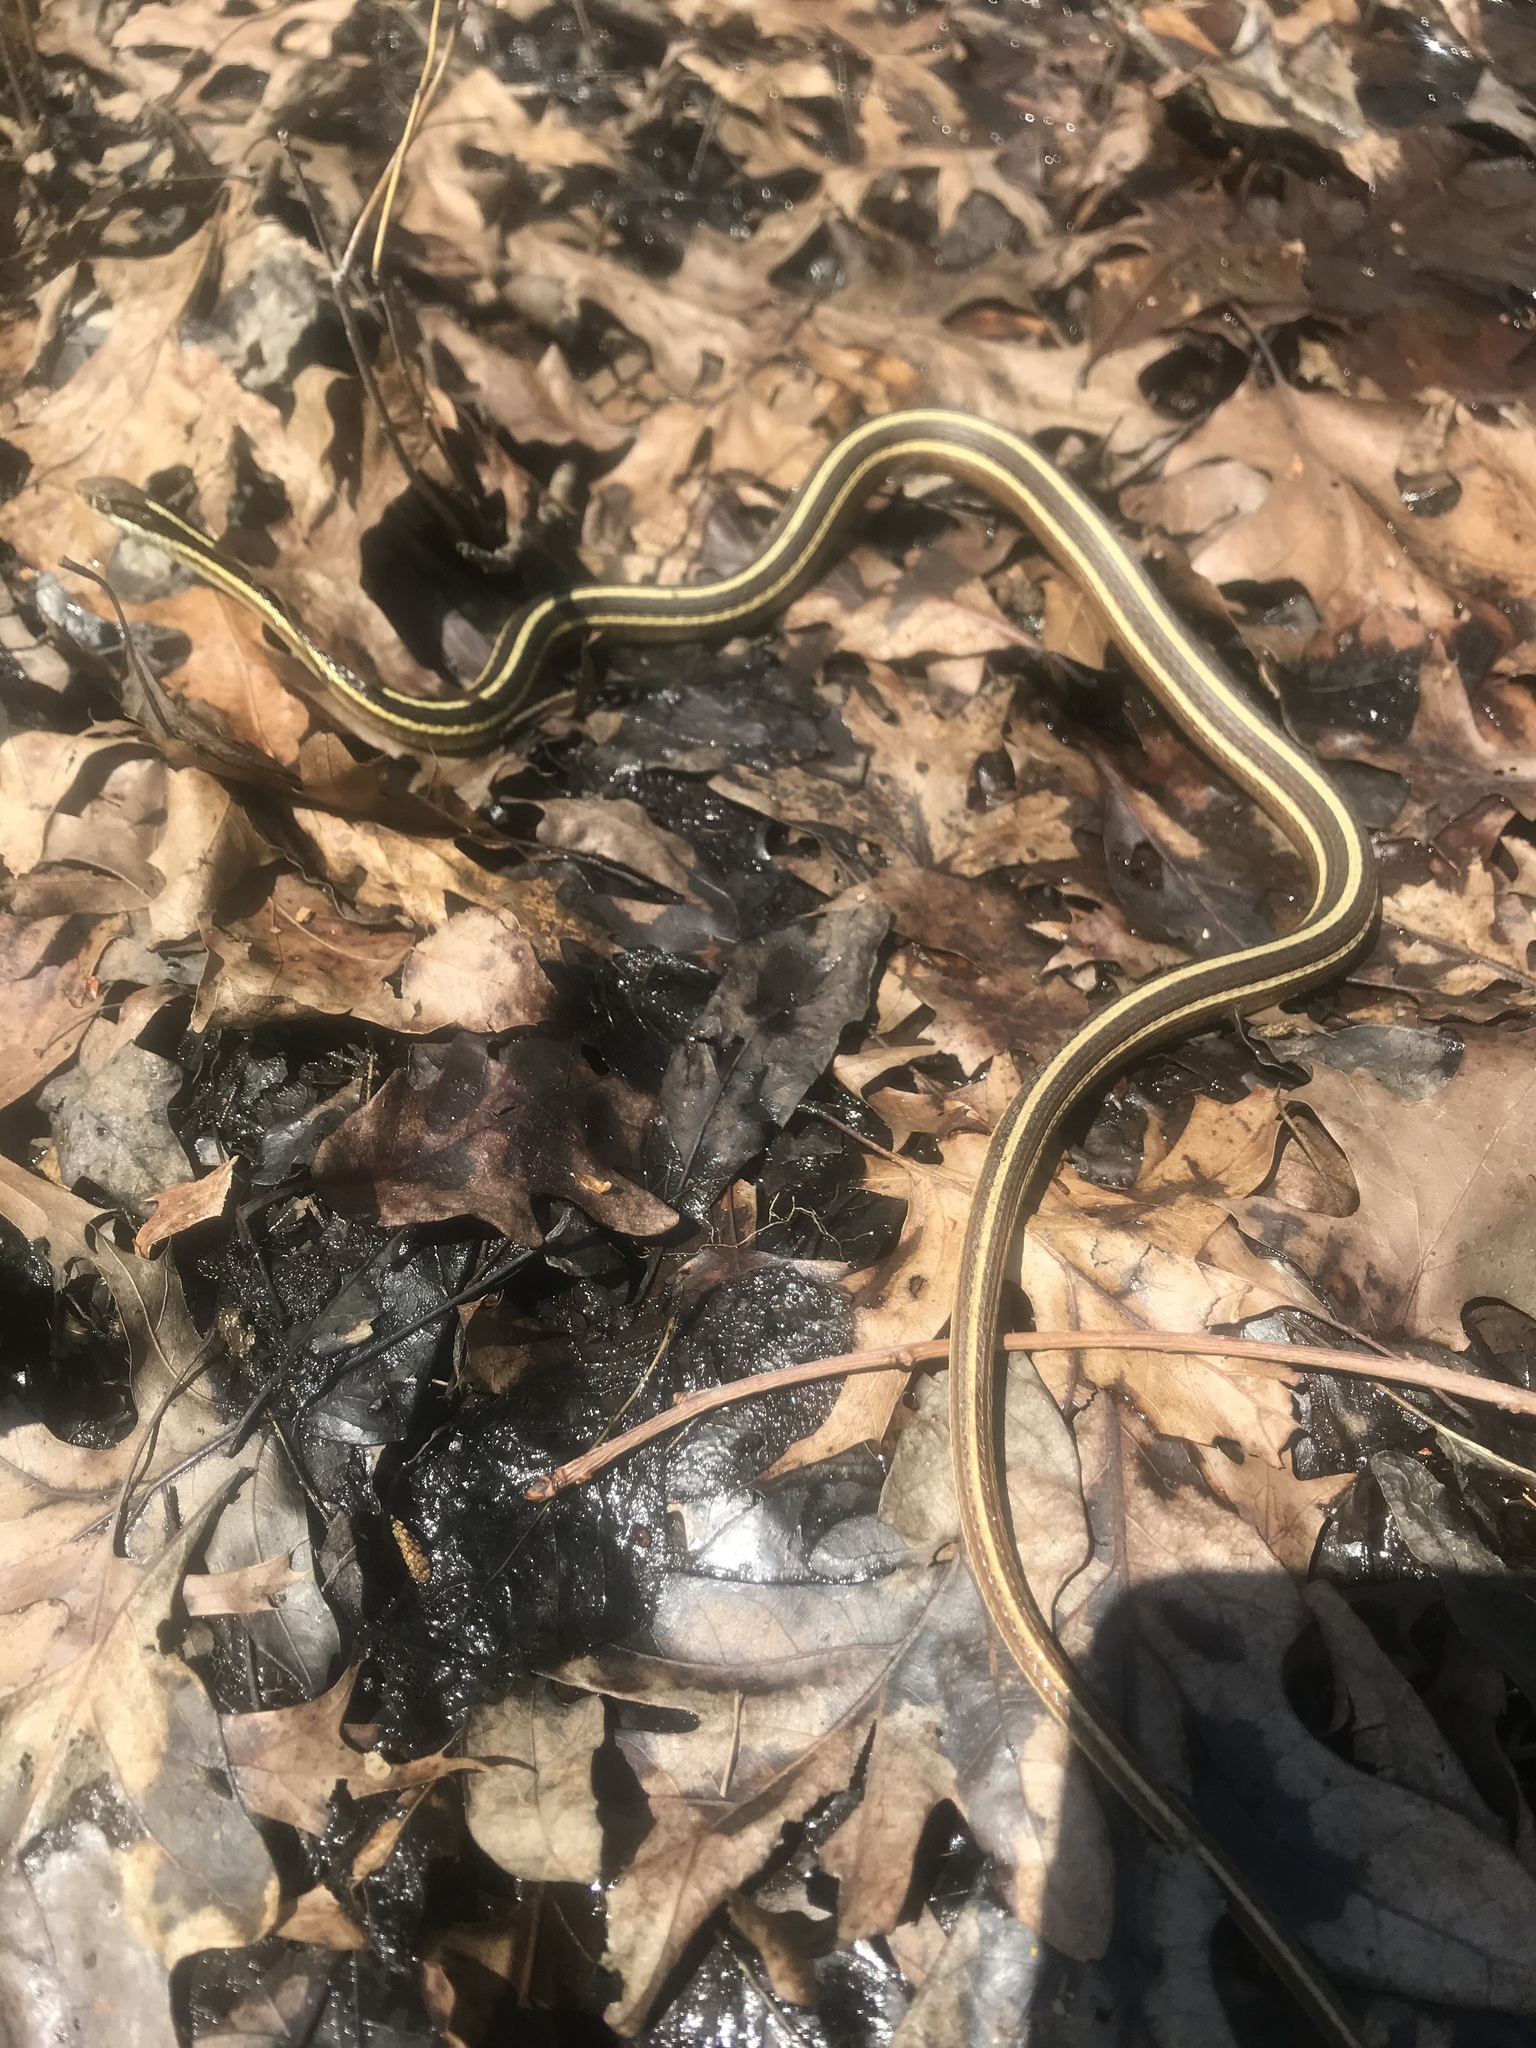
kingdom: Animalia
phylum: Chordata
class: Squamata
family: Colubridae
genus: Thamnophis
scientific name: Thamnophis saurita
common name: Eastern ribbonsnake
